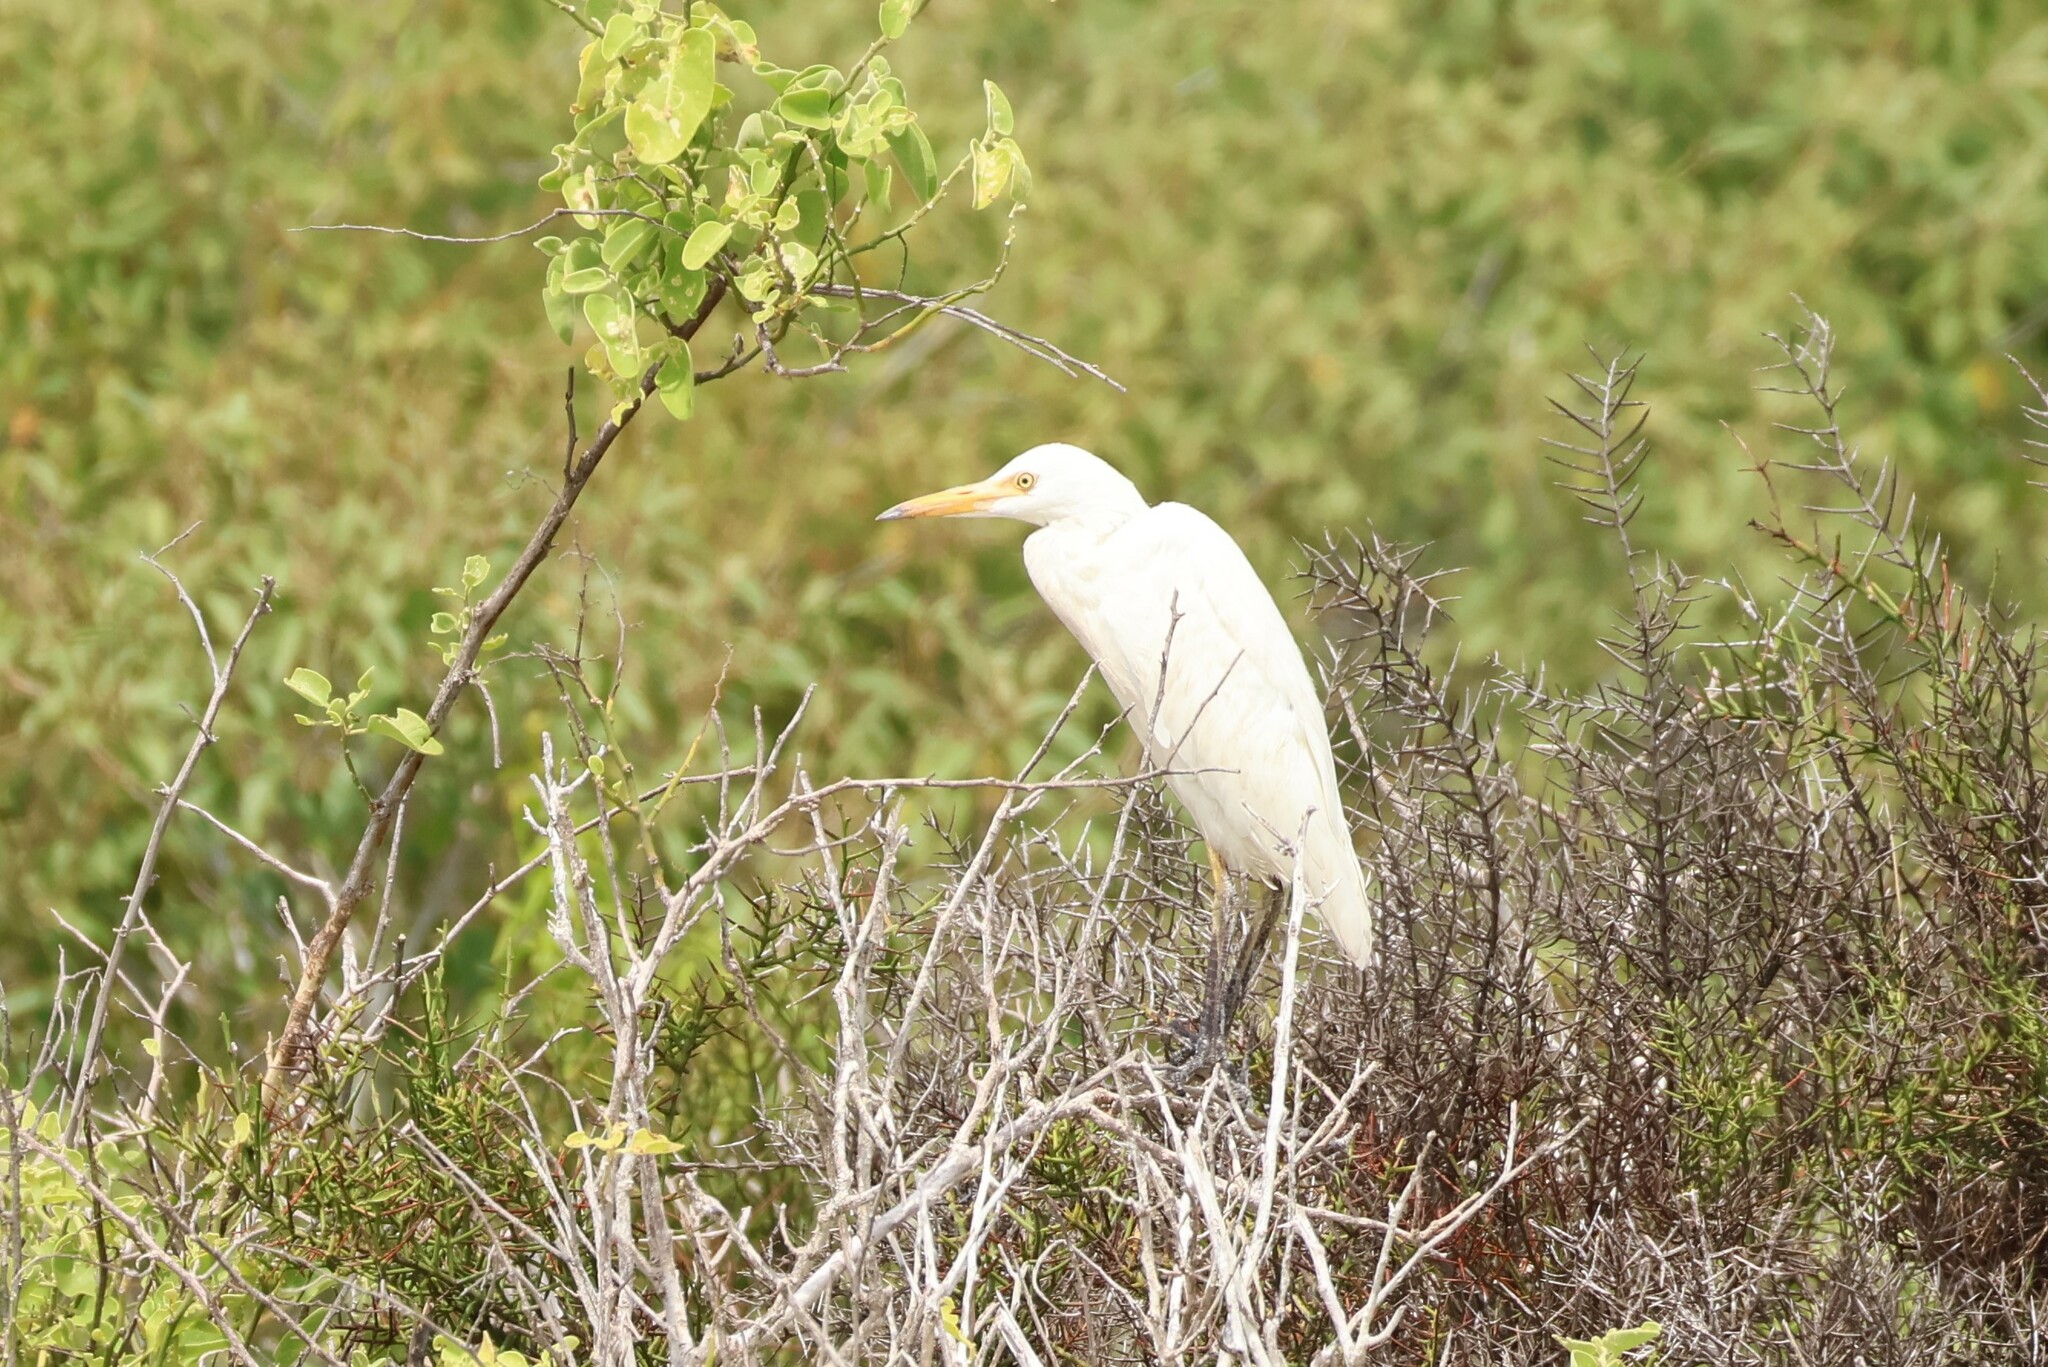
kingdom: Animalia
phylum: Chordata
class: Aves
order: Pelecaniformes
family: Ardeidae
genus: Bubulcus
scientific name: Bubulcus ibis
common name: Cattle egret
